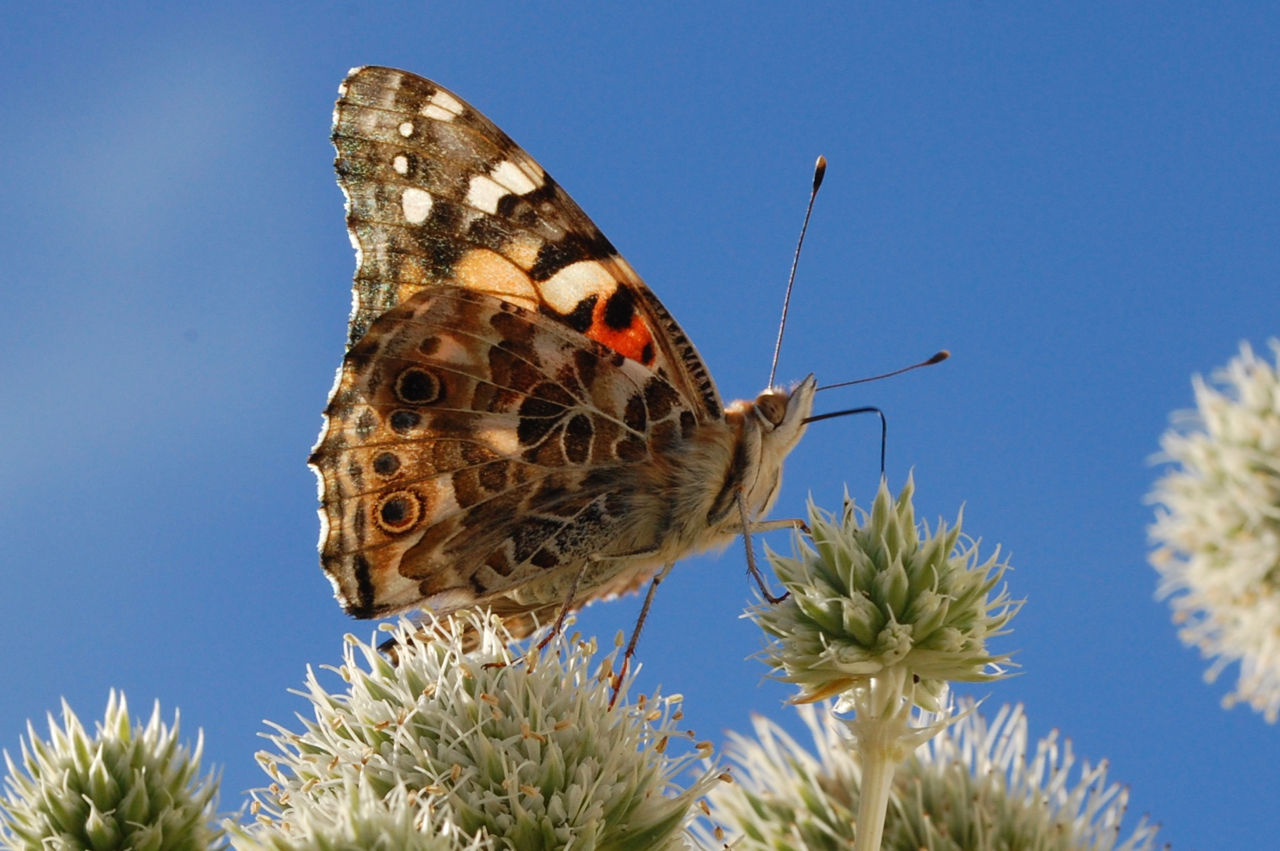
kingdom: Animalia
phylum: Arthropoda
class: Insecta
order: Lepidoptera
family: Nymphalidae
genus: Vanessa
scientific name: Vanessa cardui
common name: Painted lady
